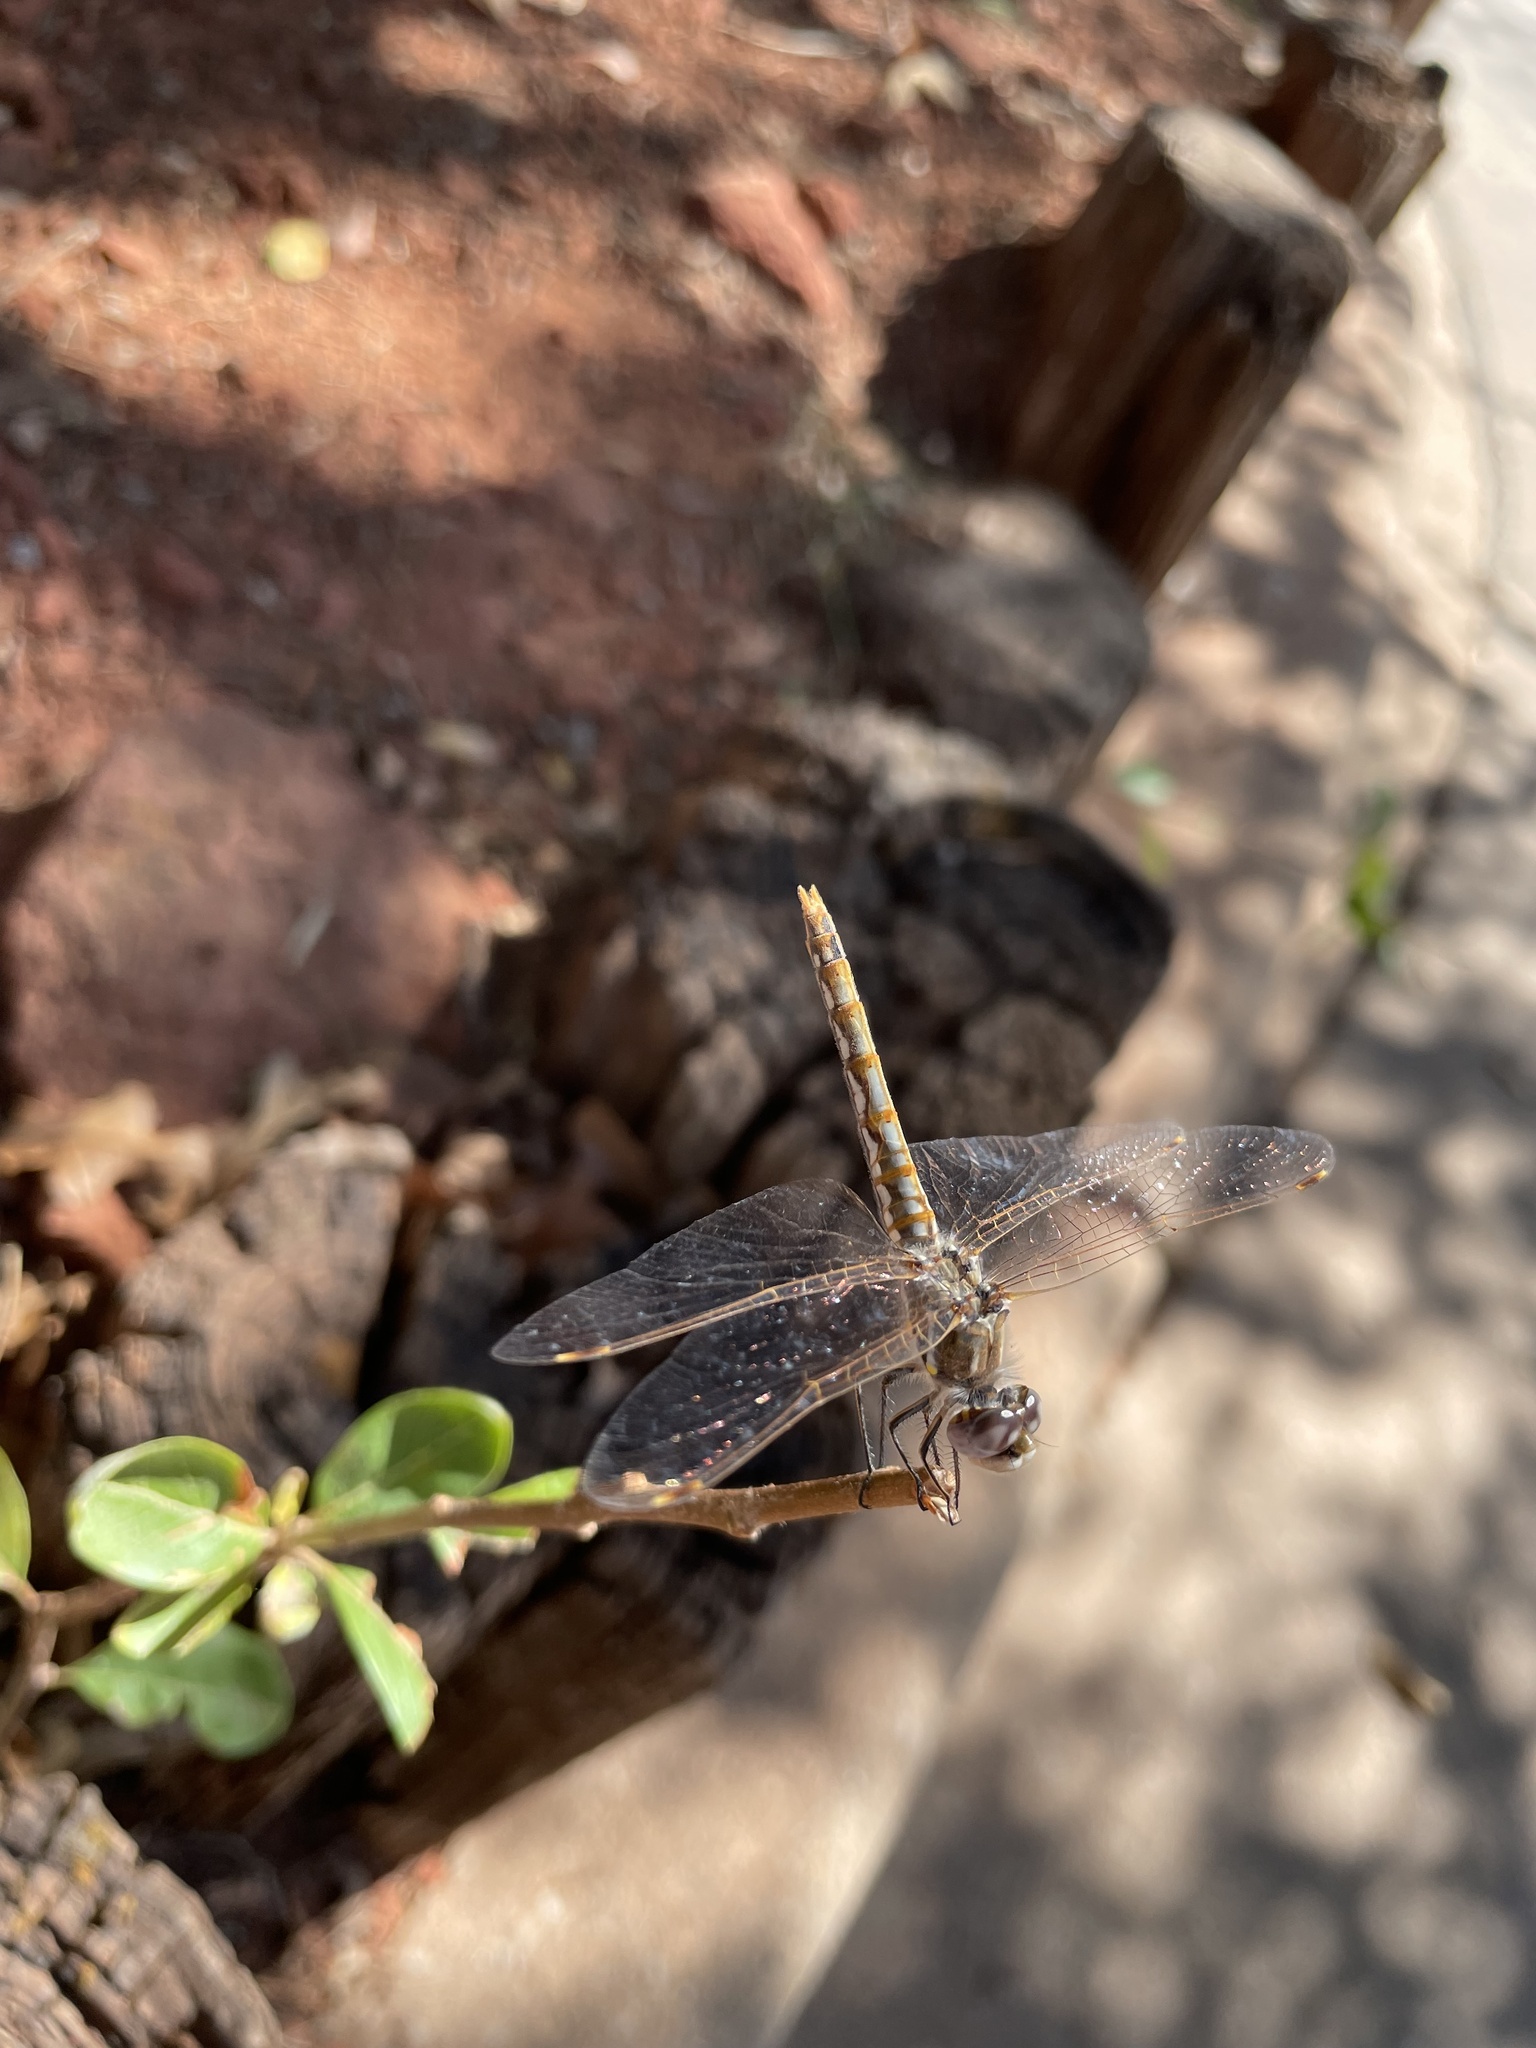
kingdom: Animalia
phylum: Arthropoda
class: Insecta
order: Odonata
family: Libellulidae
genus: Sympetrum
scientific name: Sympetrum corruptum
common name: Variegated meadowhawk
